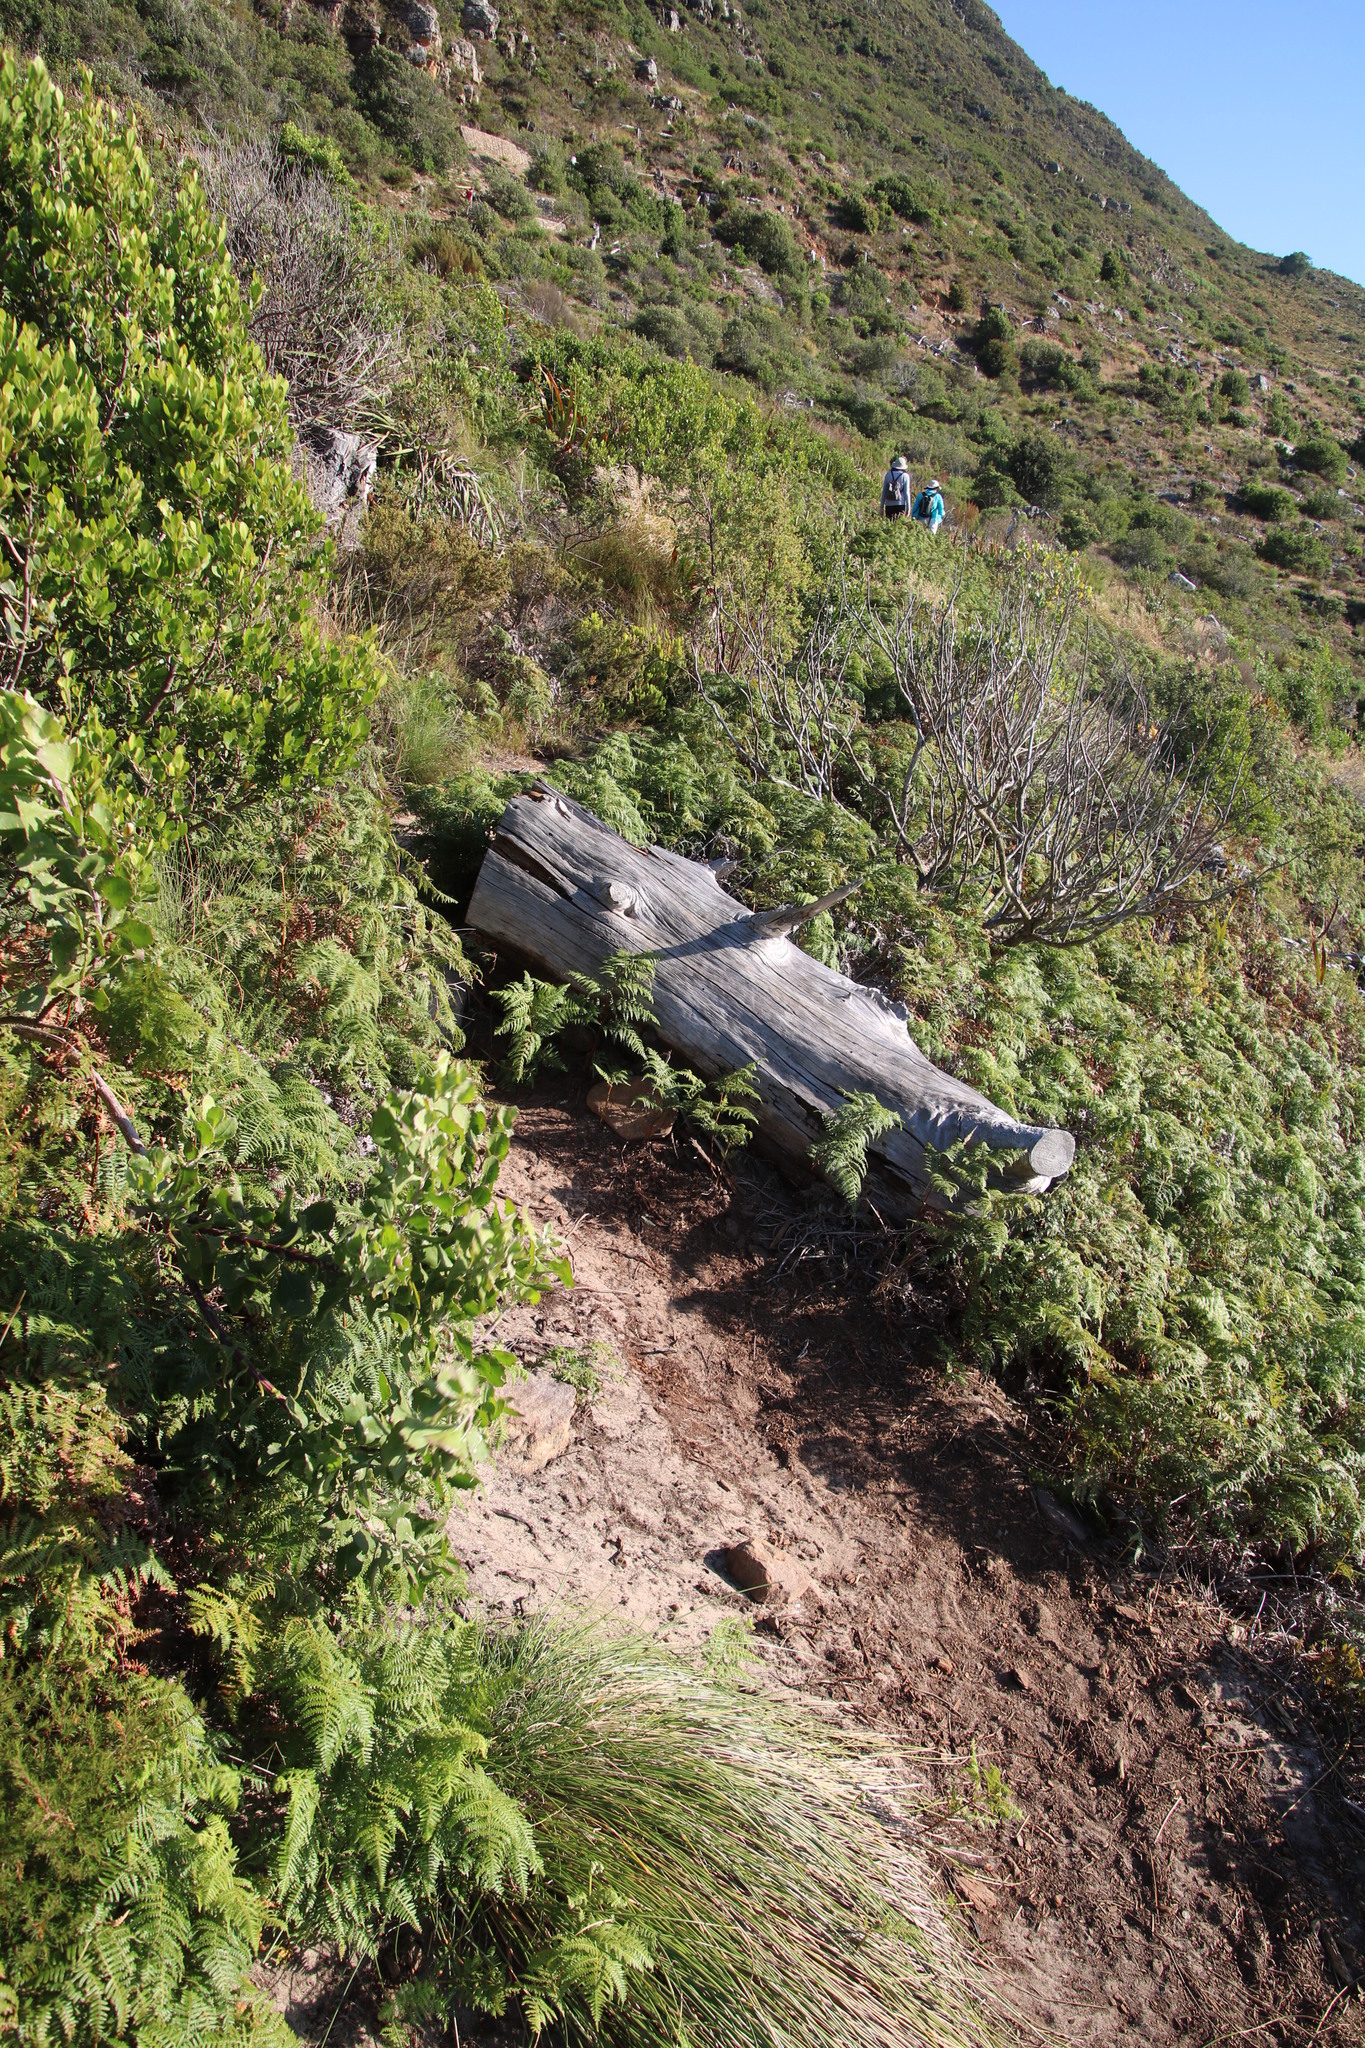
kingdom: Plantae
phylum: Tracheophyta
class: Polypodiopsida
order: Polypodiales
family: Dennstaedtiaceae
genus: Pteridium
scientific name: Pteridium aquilinum
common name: Bracken
